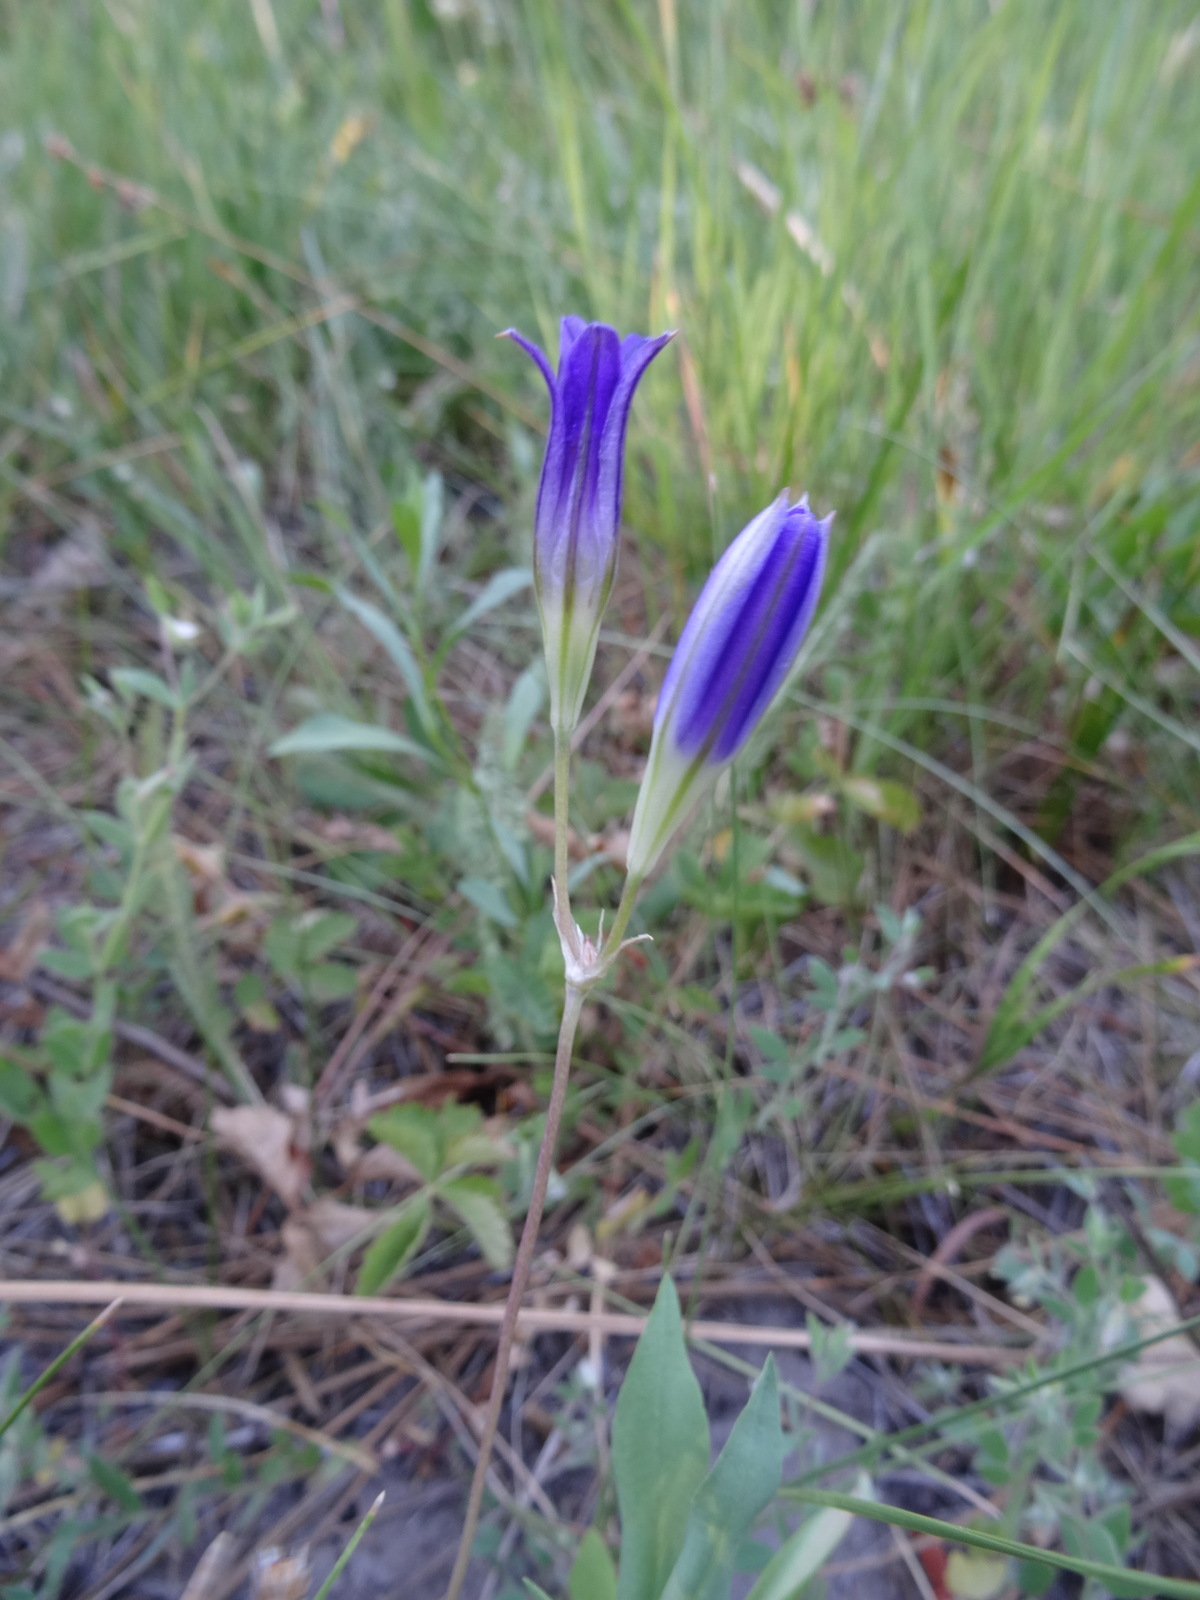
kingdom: Plantae
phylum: Tracheophyta
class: Liliopsida
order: Asparagales
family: Asparagaceae
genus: Brodiaea
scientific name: Brodiaea elegans
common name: Elegant cluster-lily
